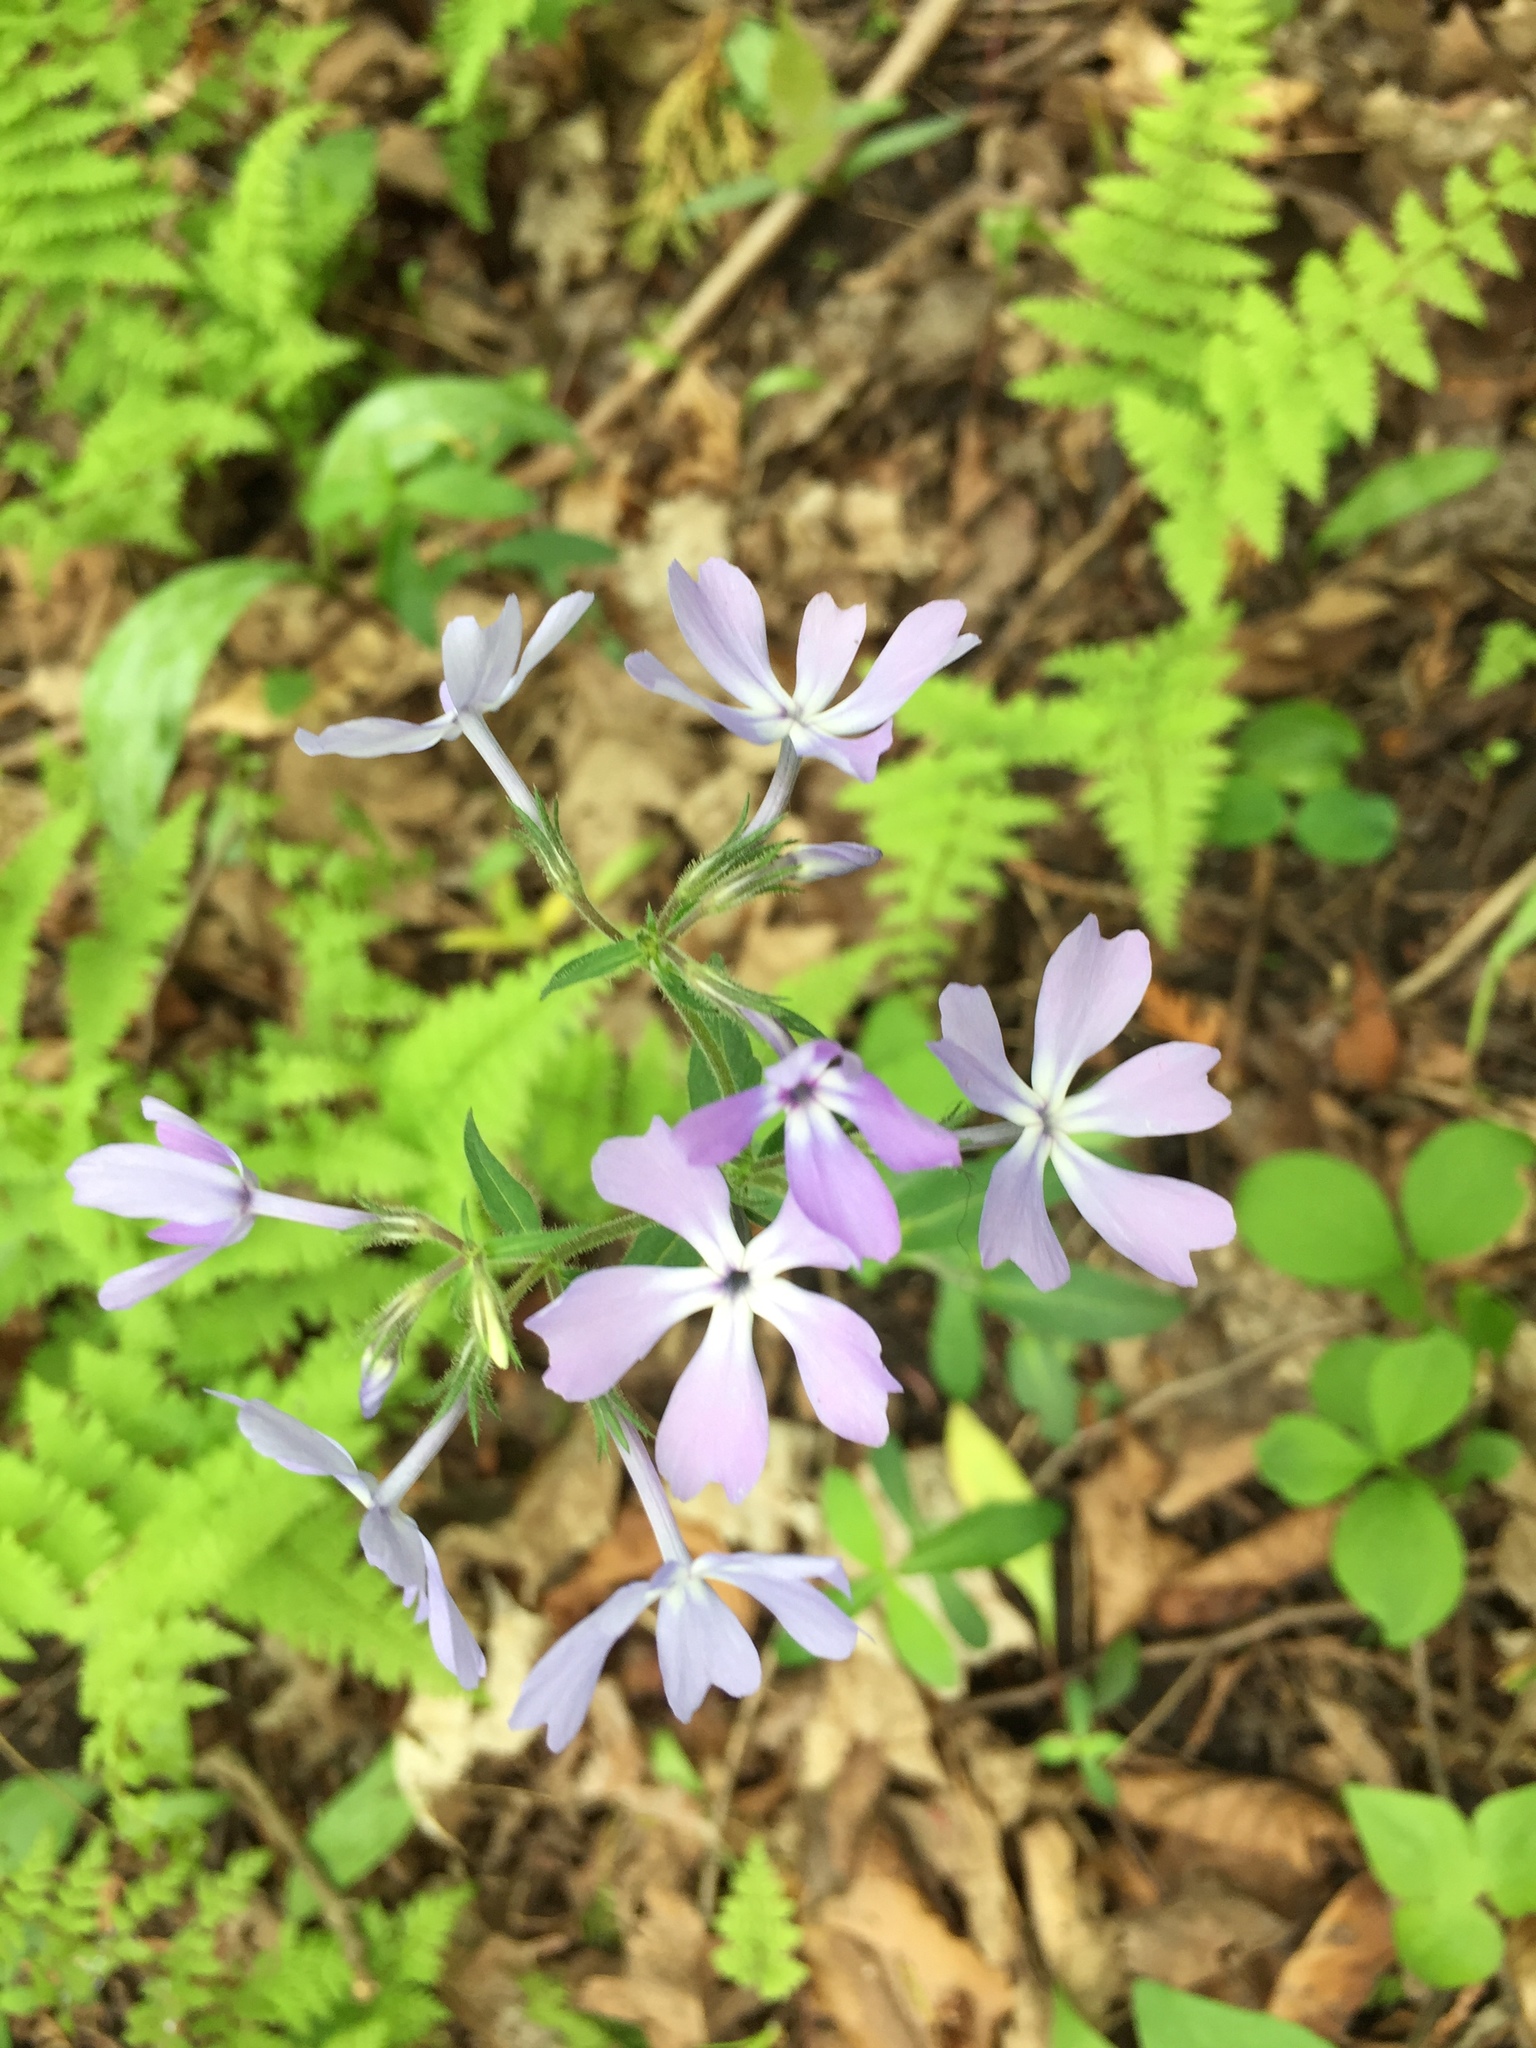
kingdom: Plantae
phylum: Tracheophyta
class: Magnoliopsida
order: Ericales
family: Polemoniaceae
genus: Phlox
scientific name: Phlox divaricata
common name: Blue phlox
